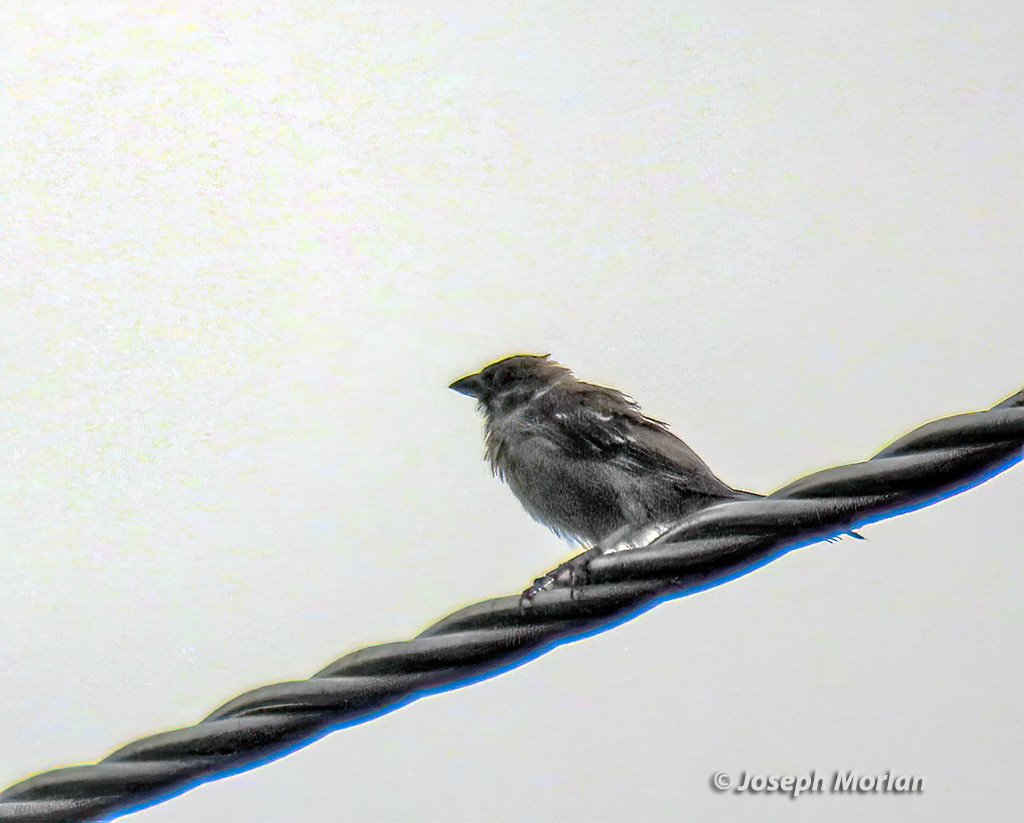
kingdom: Animalia
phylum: Chordata
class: Aves
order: Passeriformes
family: Passeridae
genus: Passer
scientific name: Passer montanus
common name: Eurasian tree sparrow
